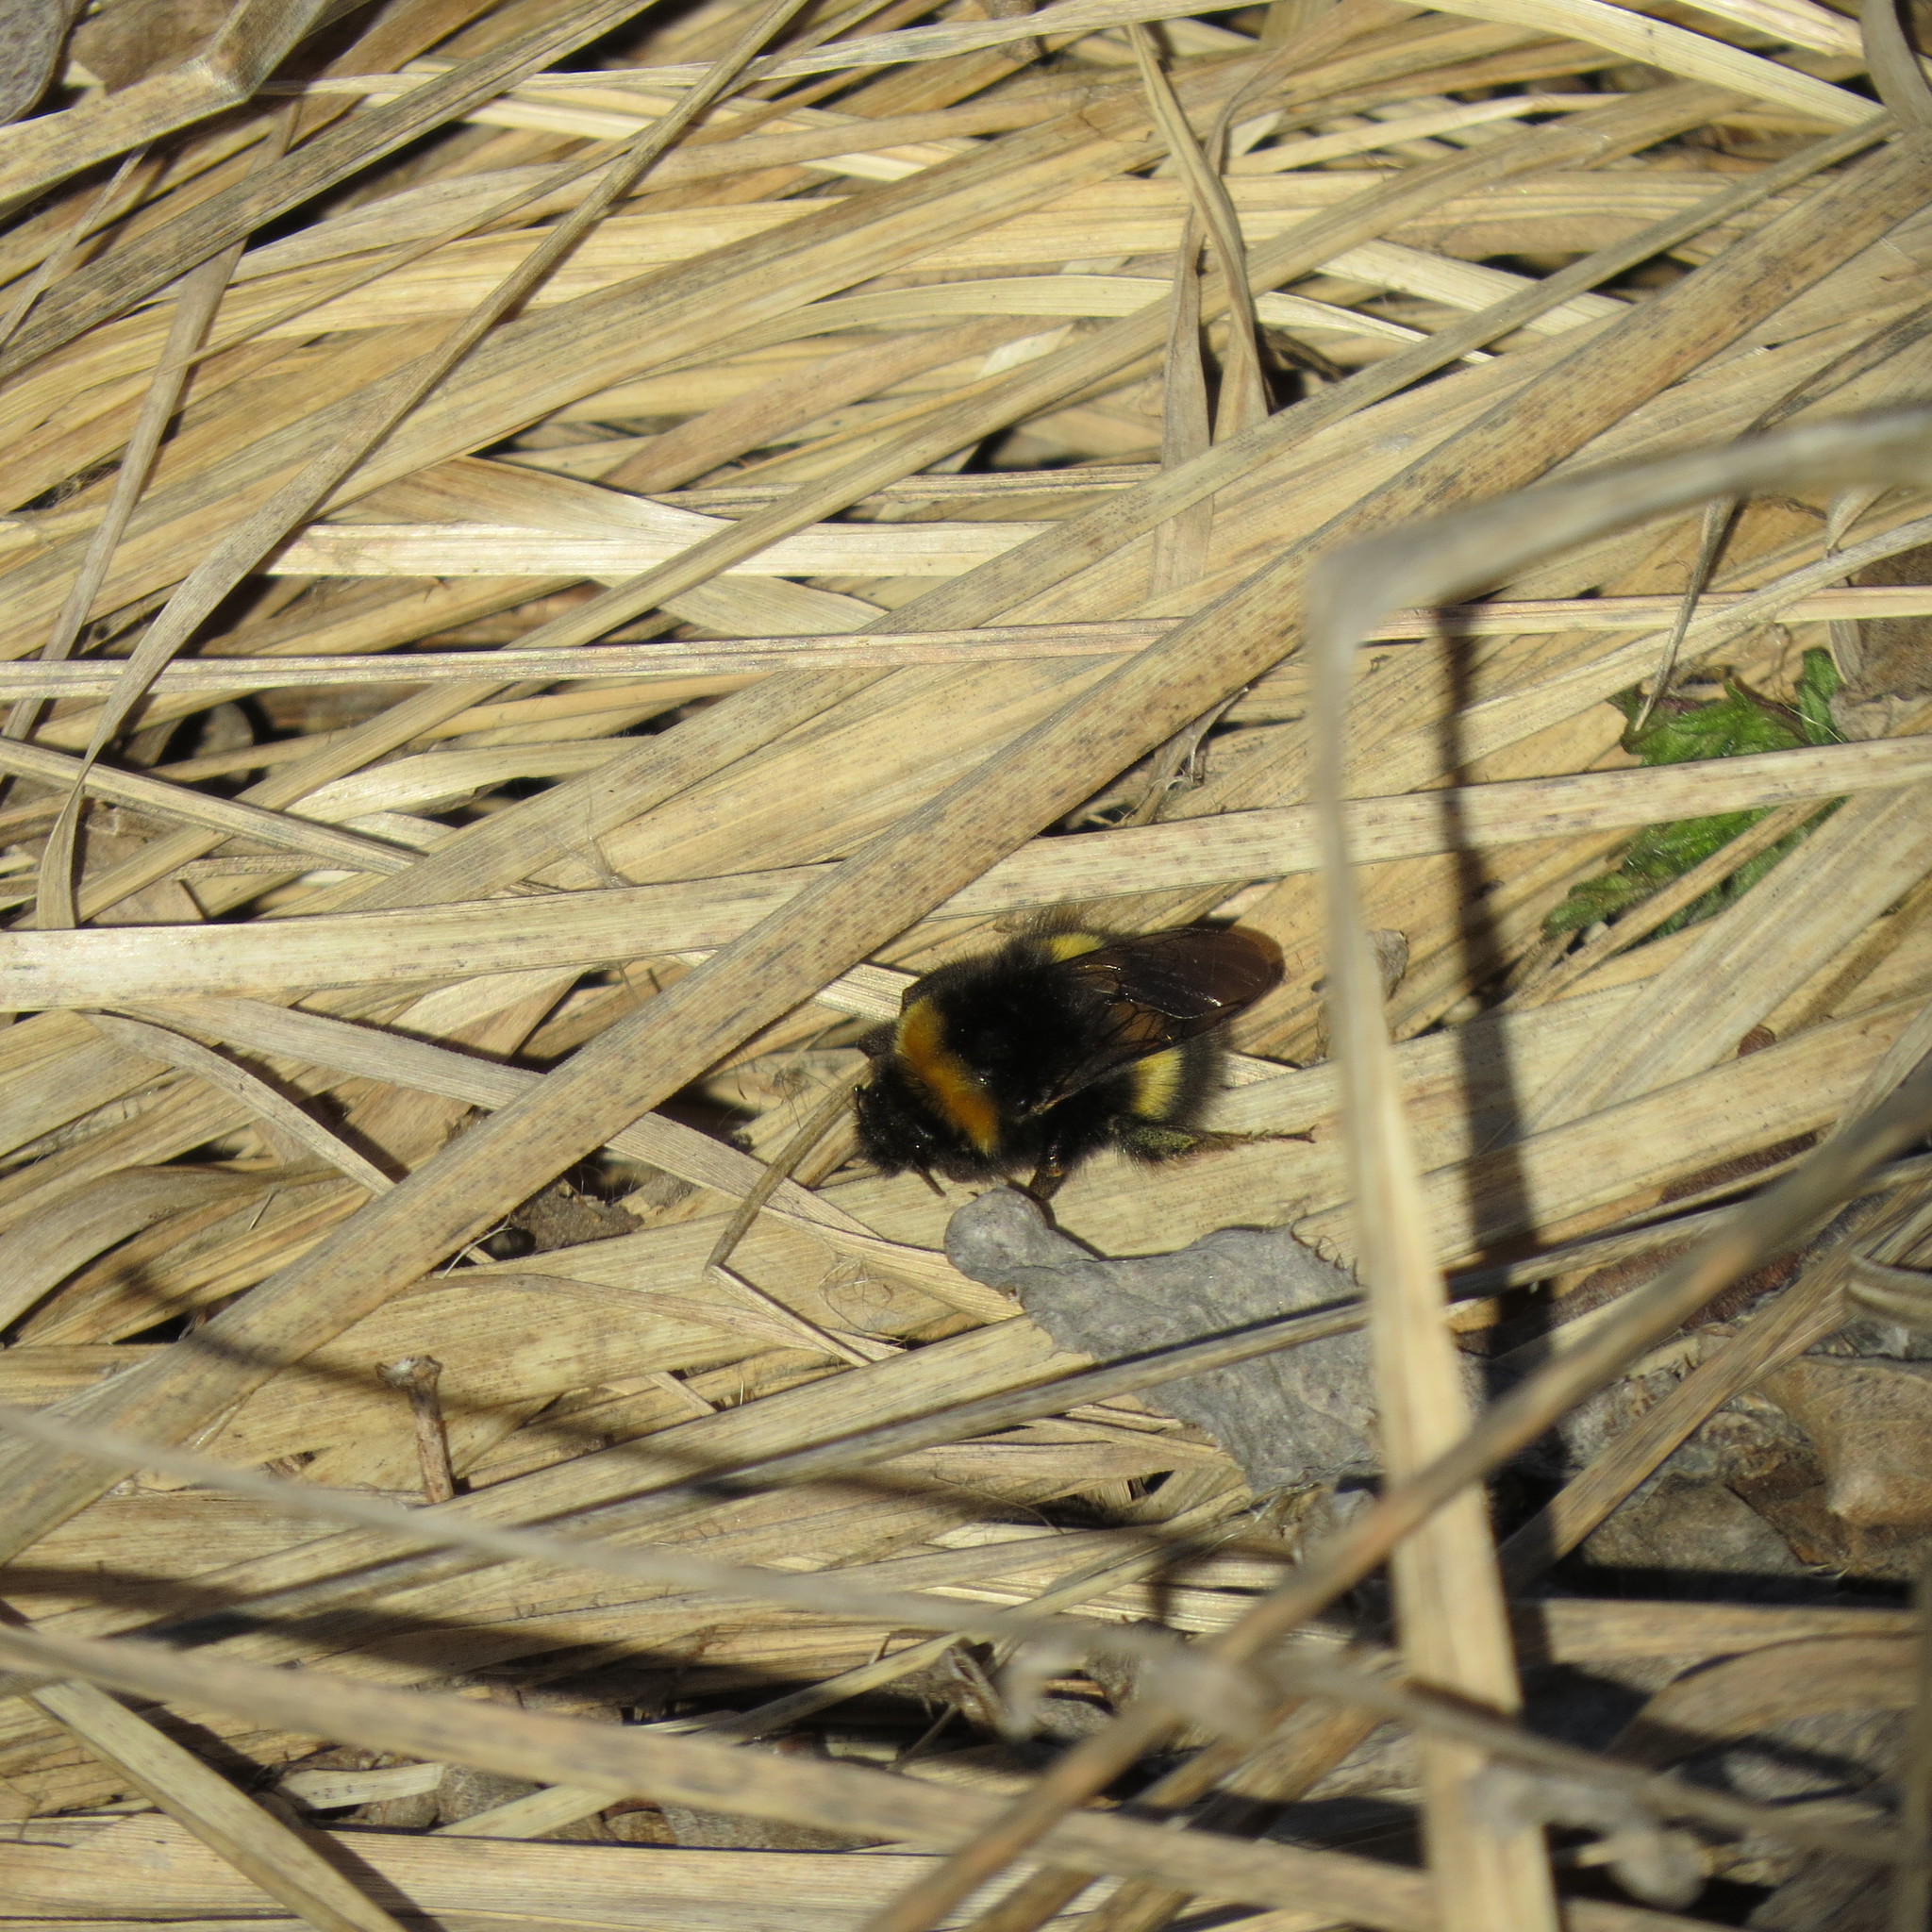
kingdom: Animalia
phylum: Arthropoda
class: Insecta
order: Hymenoptera
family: Apidae
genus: Bombus
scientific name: Bombus
